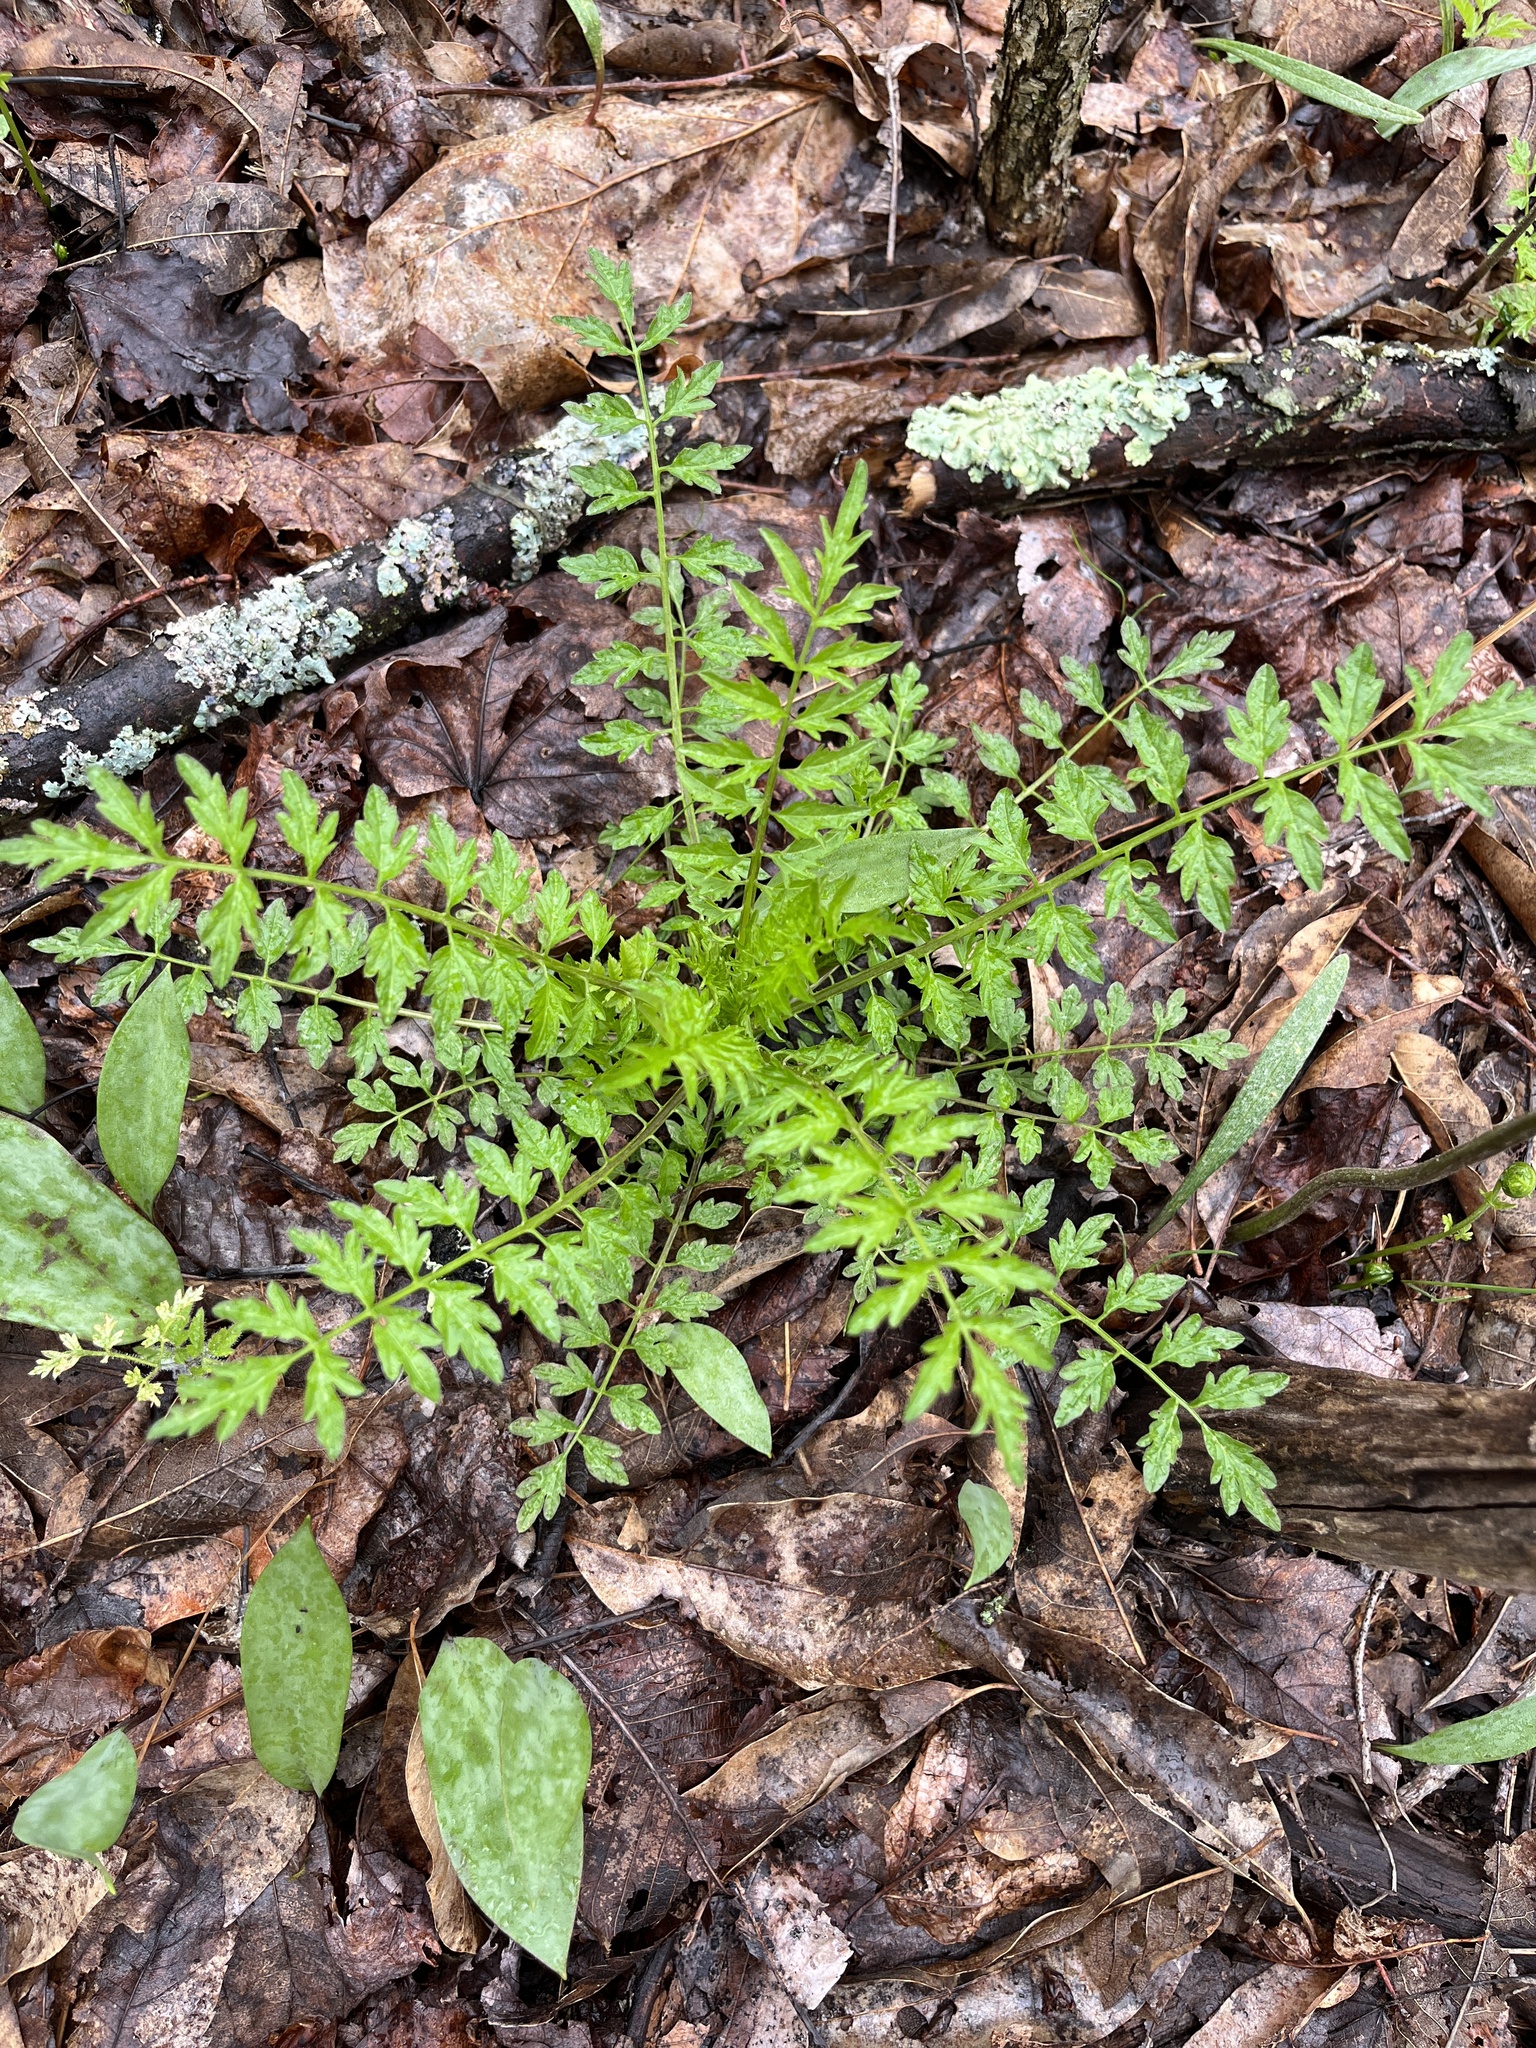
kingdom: Plantae
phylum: Tracheophyta
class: Magnoliopsida
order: Brassicales
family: Brassicaceae
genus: Cardamine
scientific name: Cardamine impatiens
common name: Narrow-leaved bitter-cress
